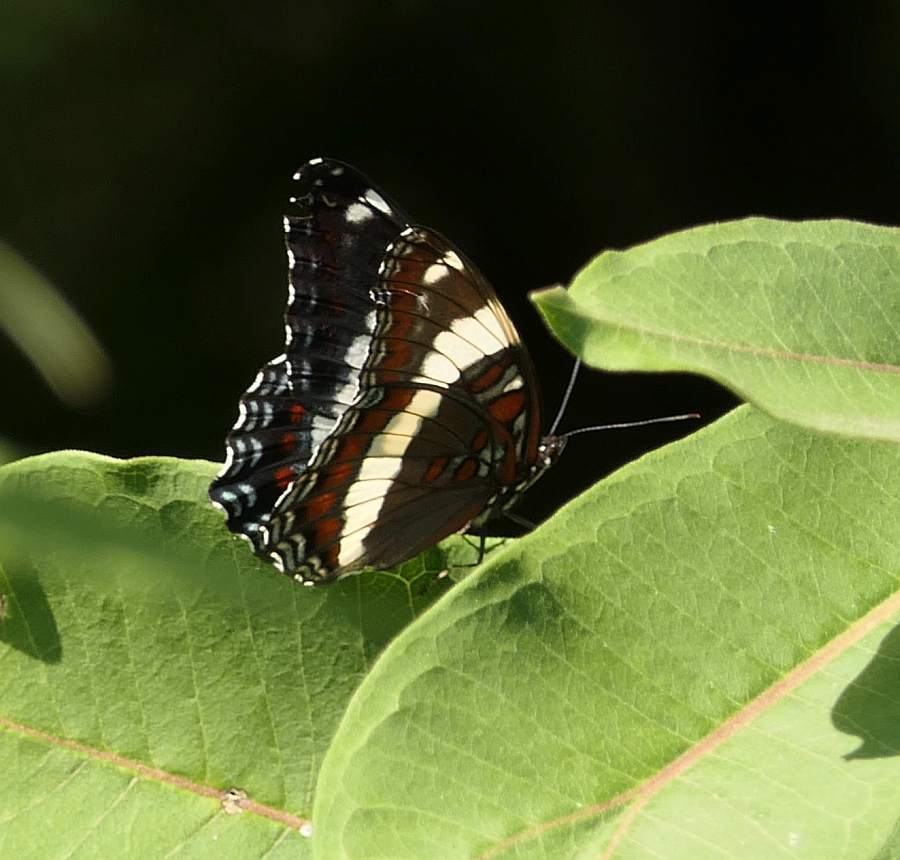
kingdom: Animalia
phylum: Arthropoda
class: Insecta
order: Lepidoptera
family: Nymphalidae
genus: Limenitis
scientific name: Limenitis arthemis
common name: Red-spotted admiral
